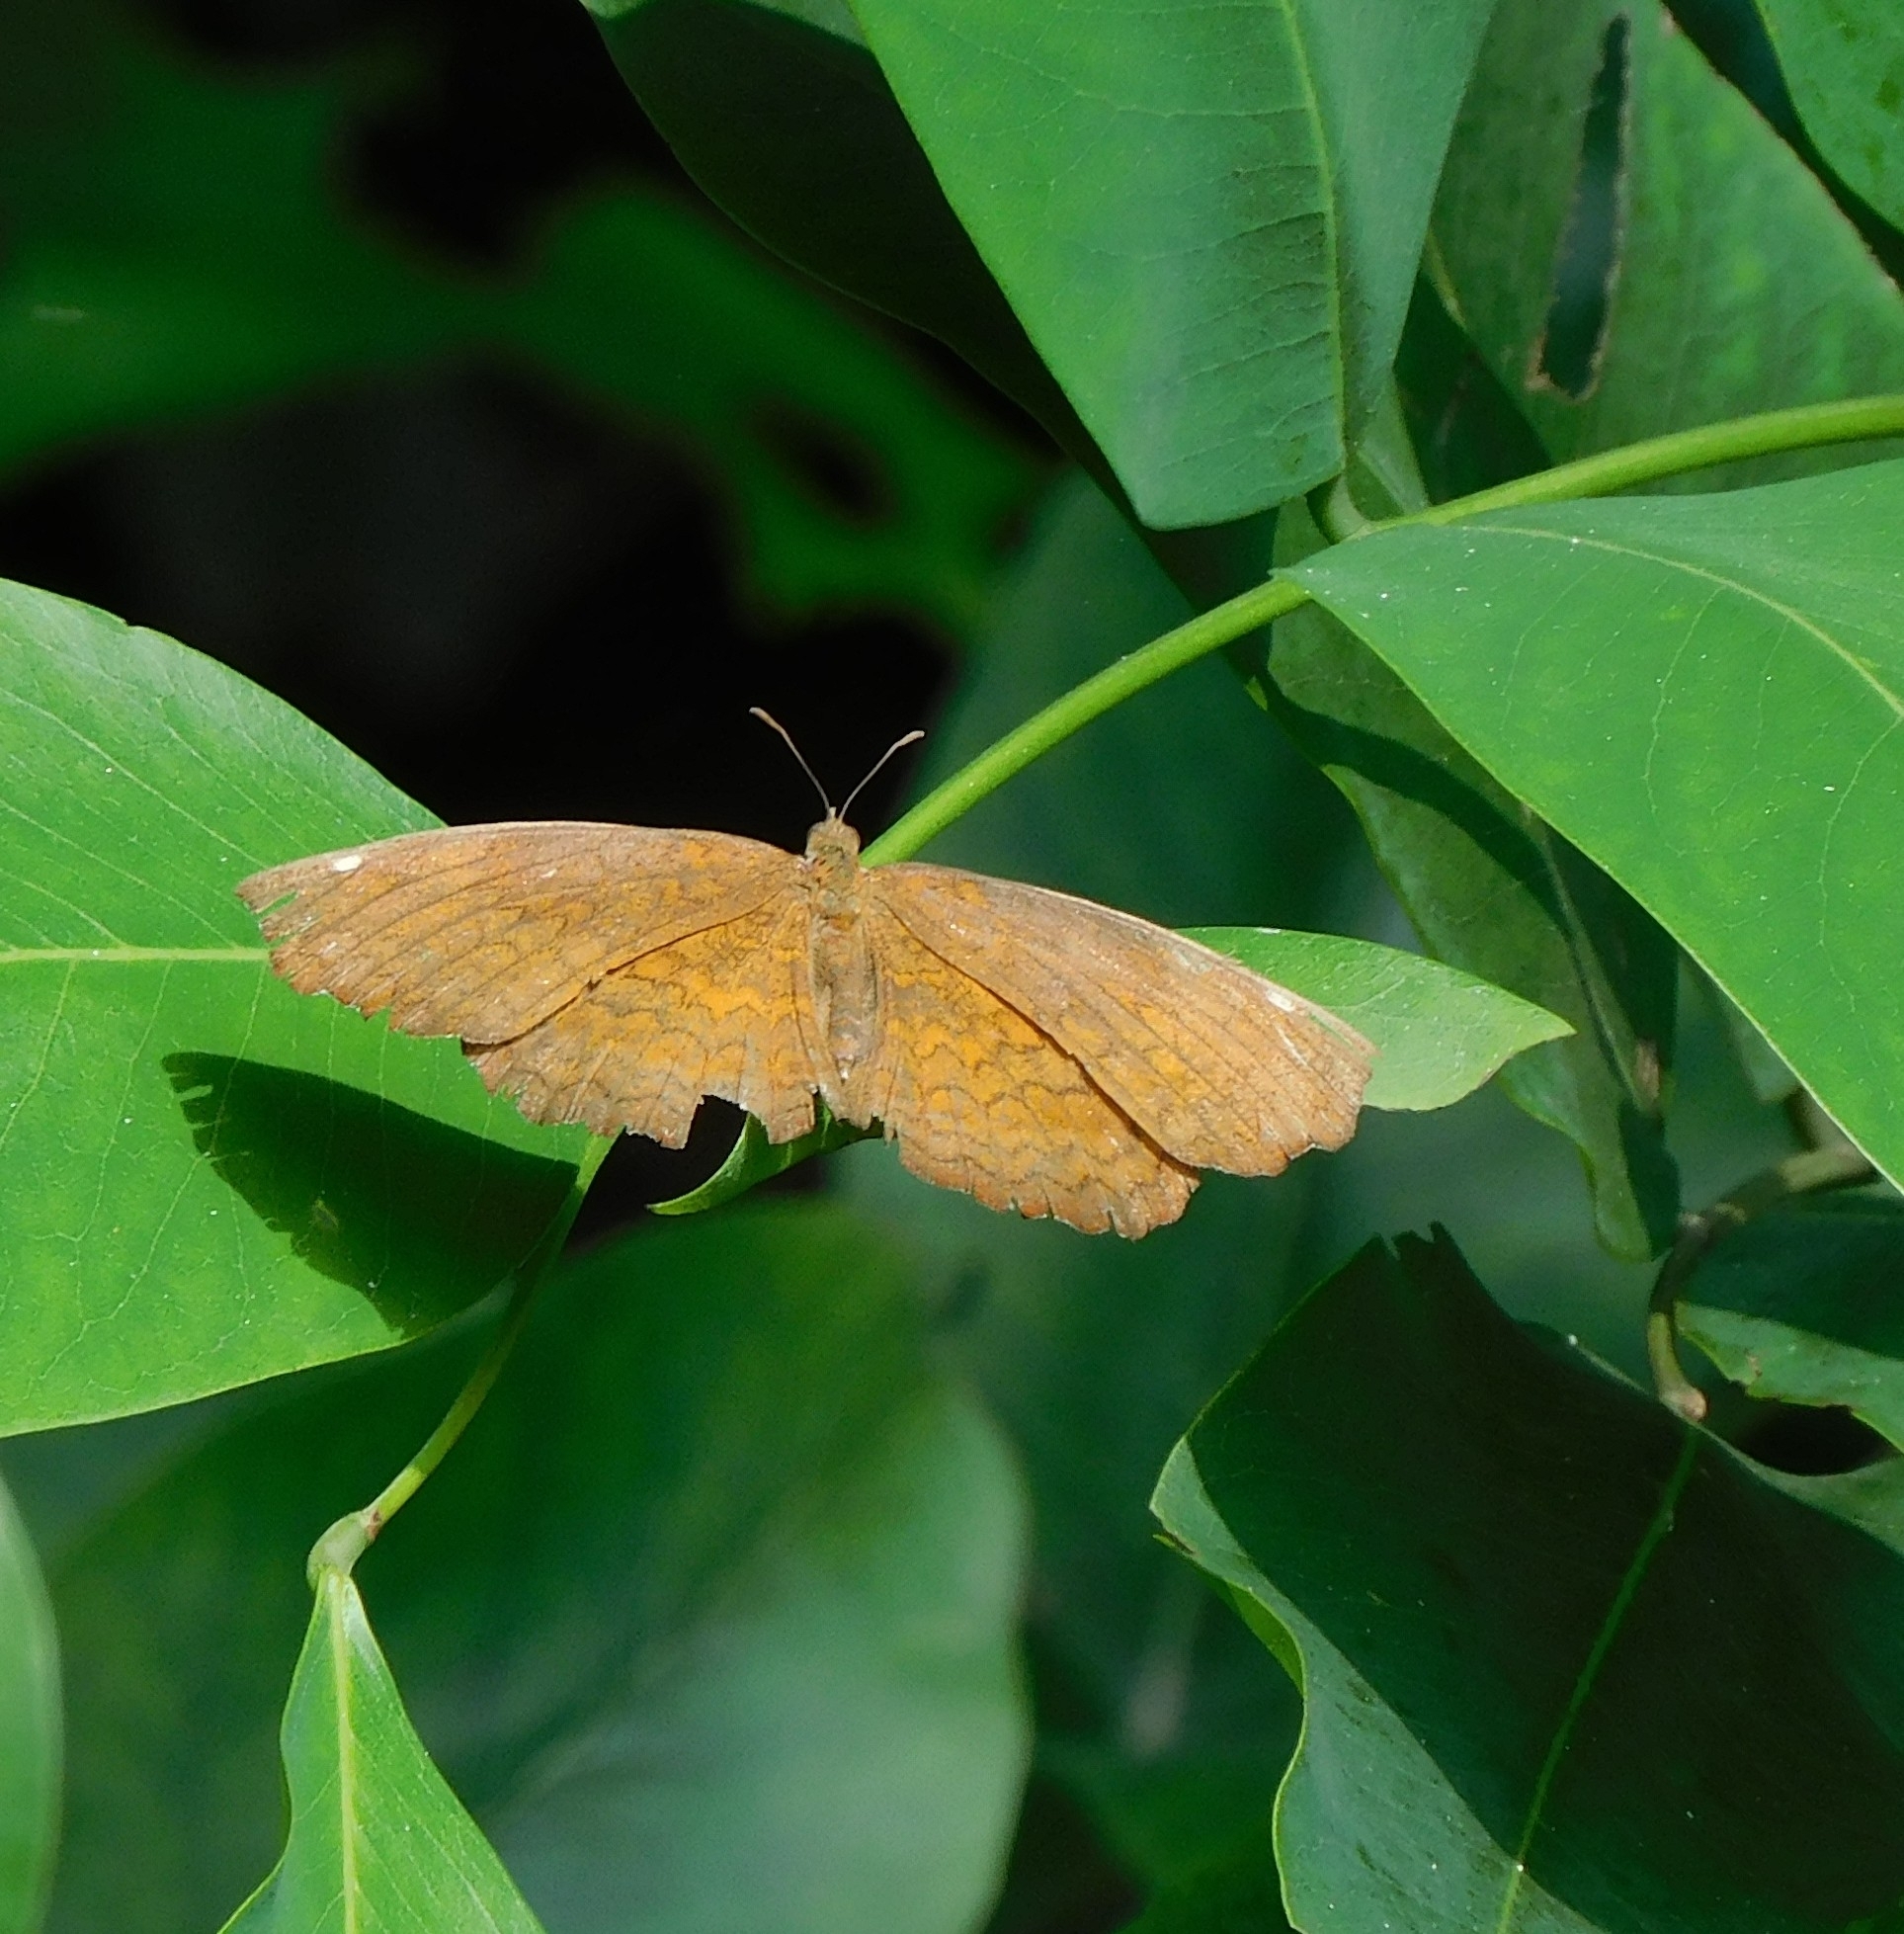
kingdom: Animalia
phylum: Arthropoda
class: Insecta
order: Lepidoptera
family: Nymphalidae
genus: Ariadne
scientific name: Ariadne merione
